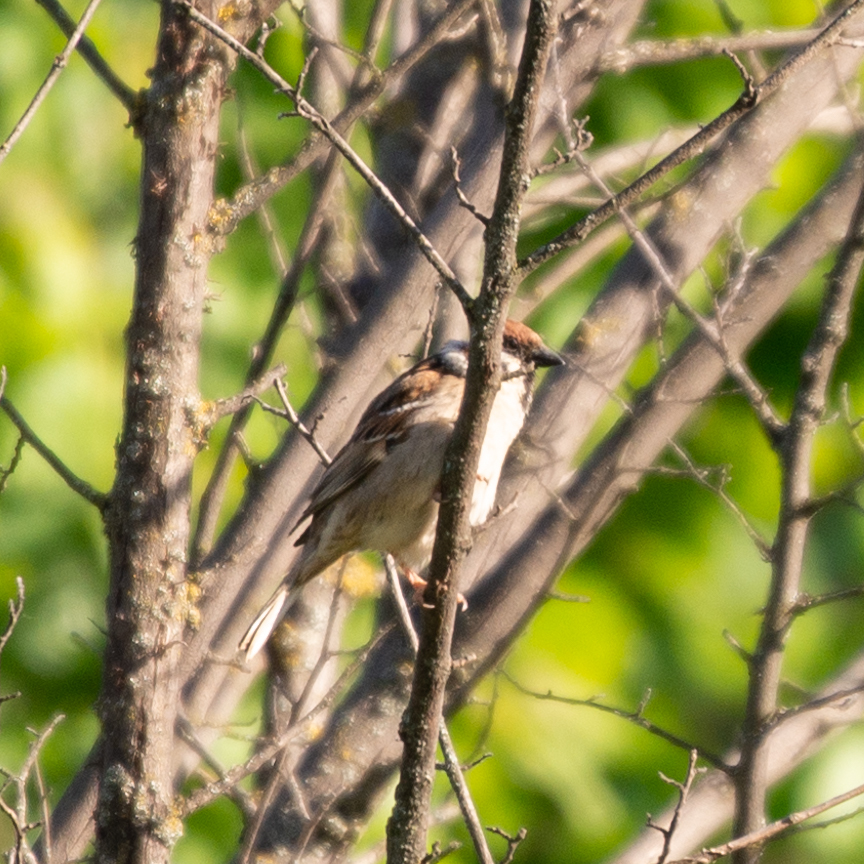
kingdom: Animalia
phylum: Chordata
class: Aves
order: Passeriformes
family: Passeridae
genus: Passer
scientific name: Passer montanus
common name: Eurasian tree sparrow
